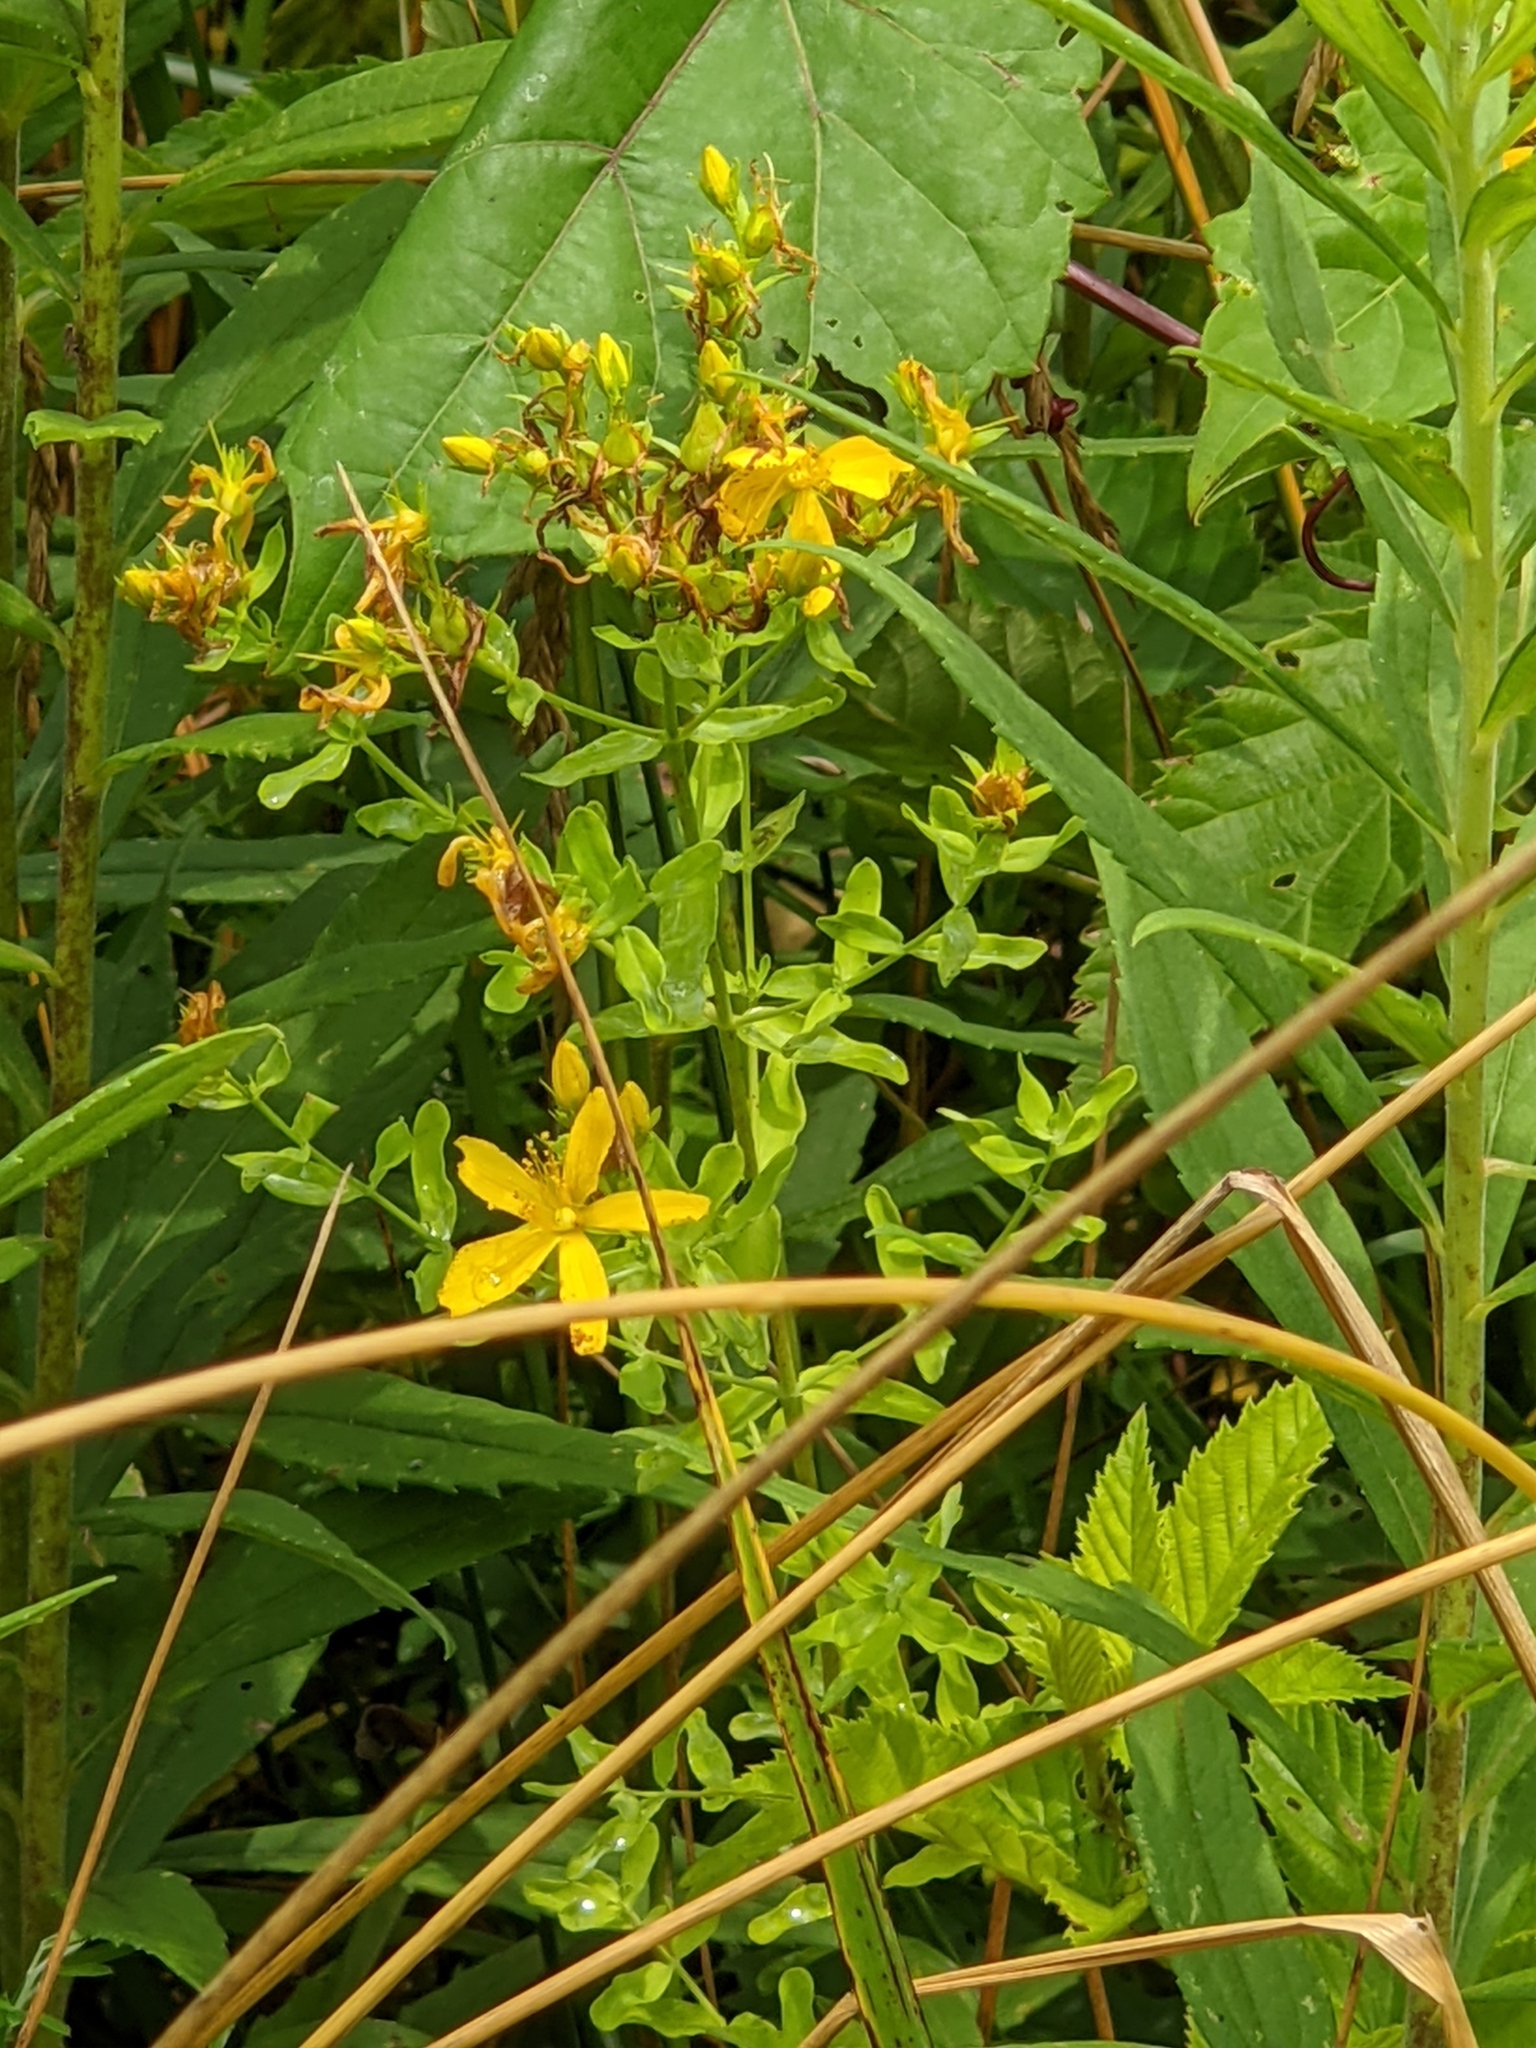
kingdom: Plantae
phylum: Tracheophyta
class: Magnoliopsida
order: Malpighiales
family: Hypericaceae
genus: Hypericum
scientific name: Hypericum perforatum
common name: Common st. johnswort
